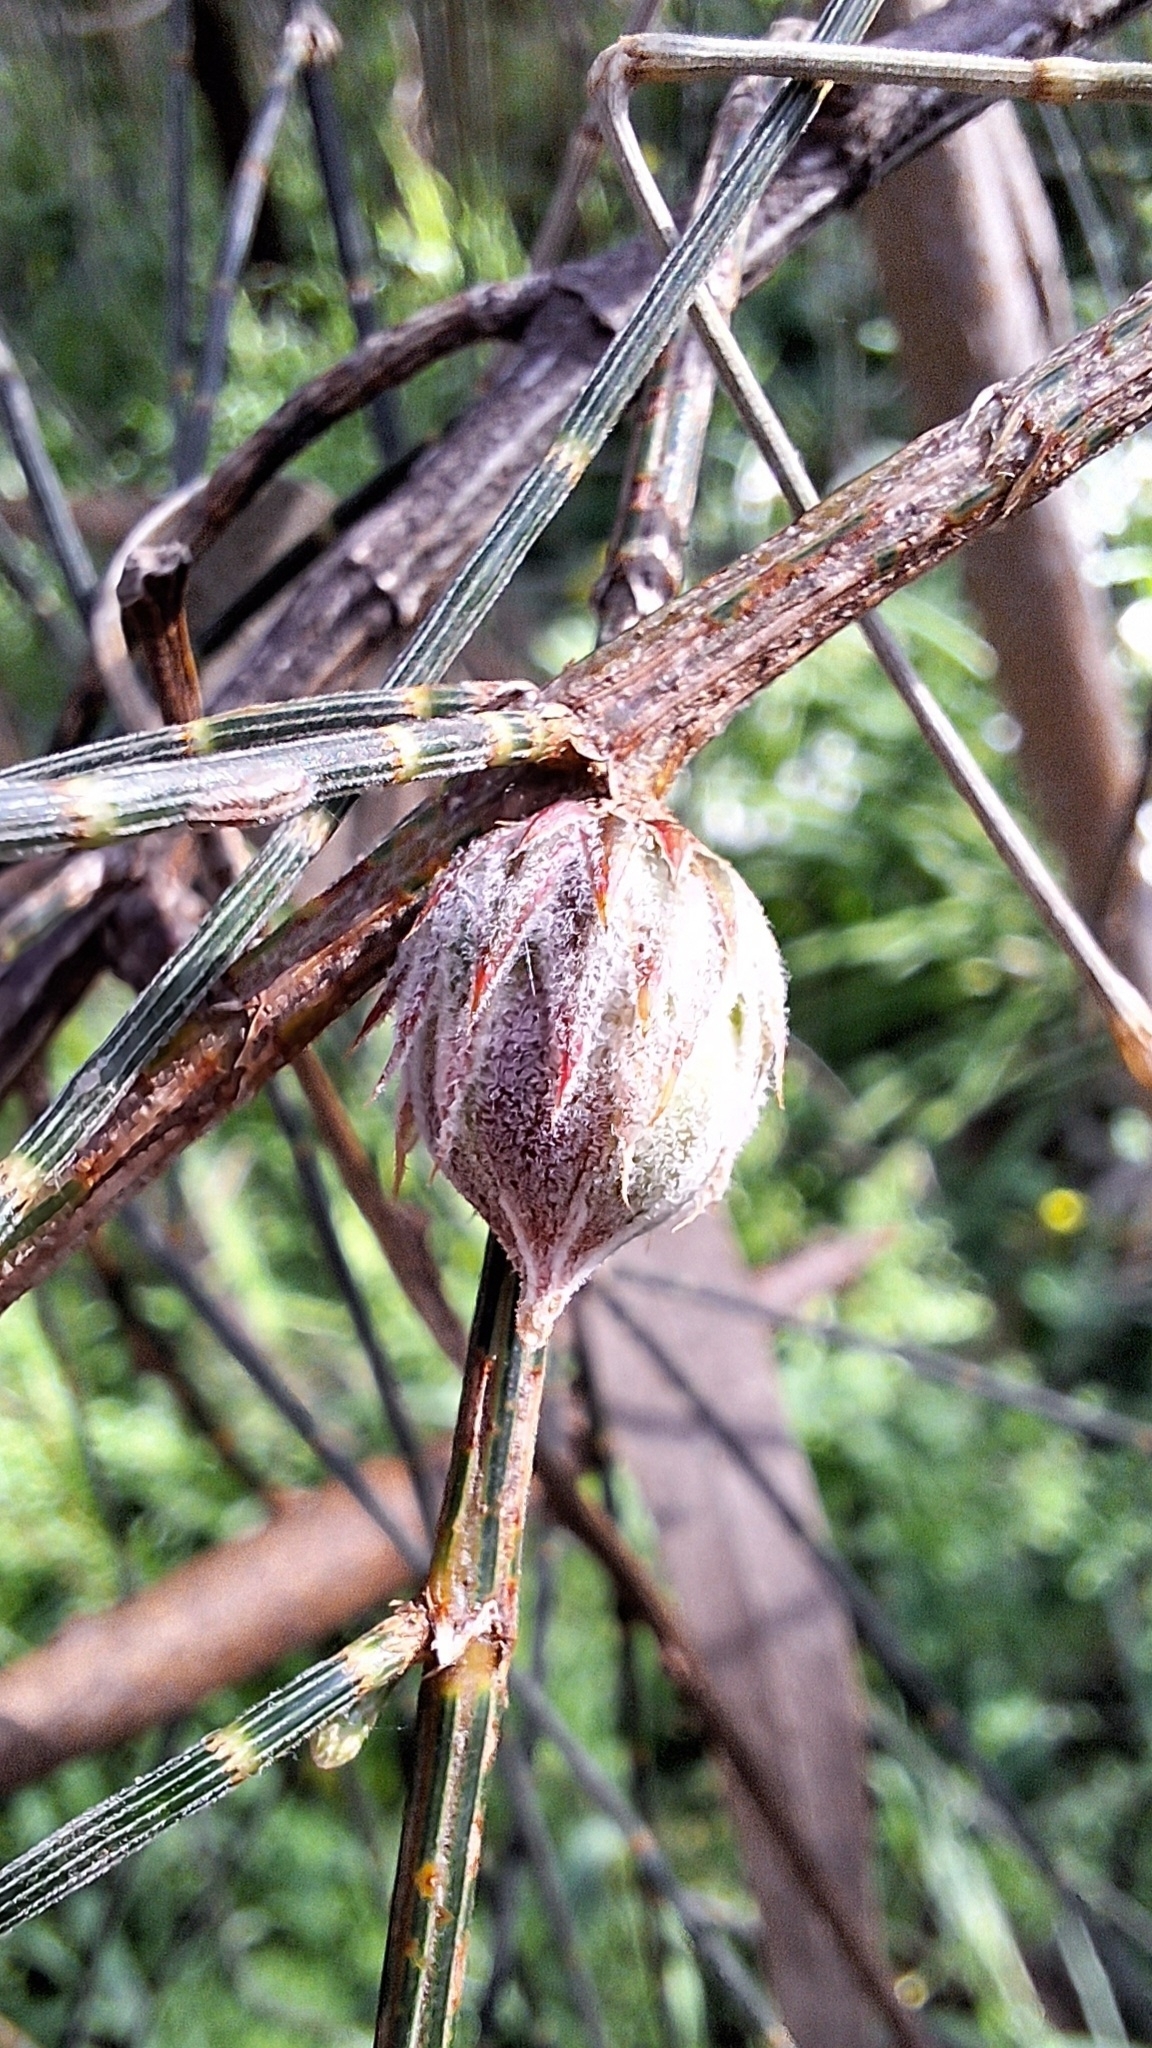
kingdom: Animalia
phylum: Arthropoda
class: Insecta
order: Hemiptera
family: Eriococcidae
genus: Cylindrococcus
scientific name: Cylindrococcus casuarinae
